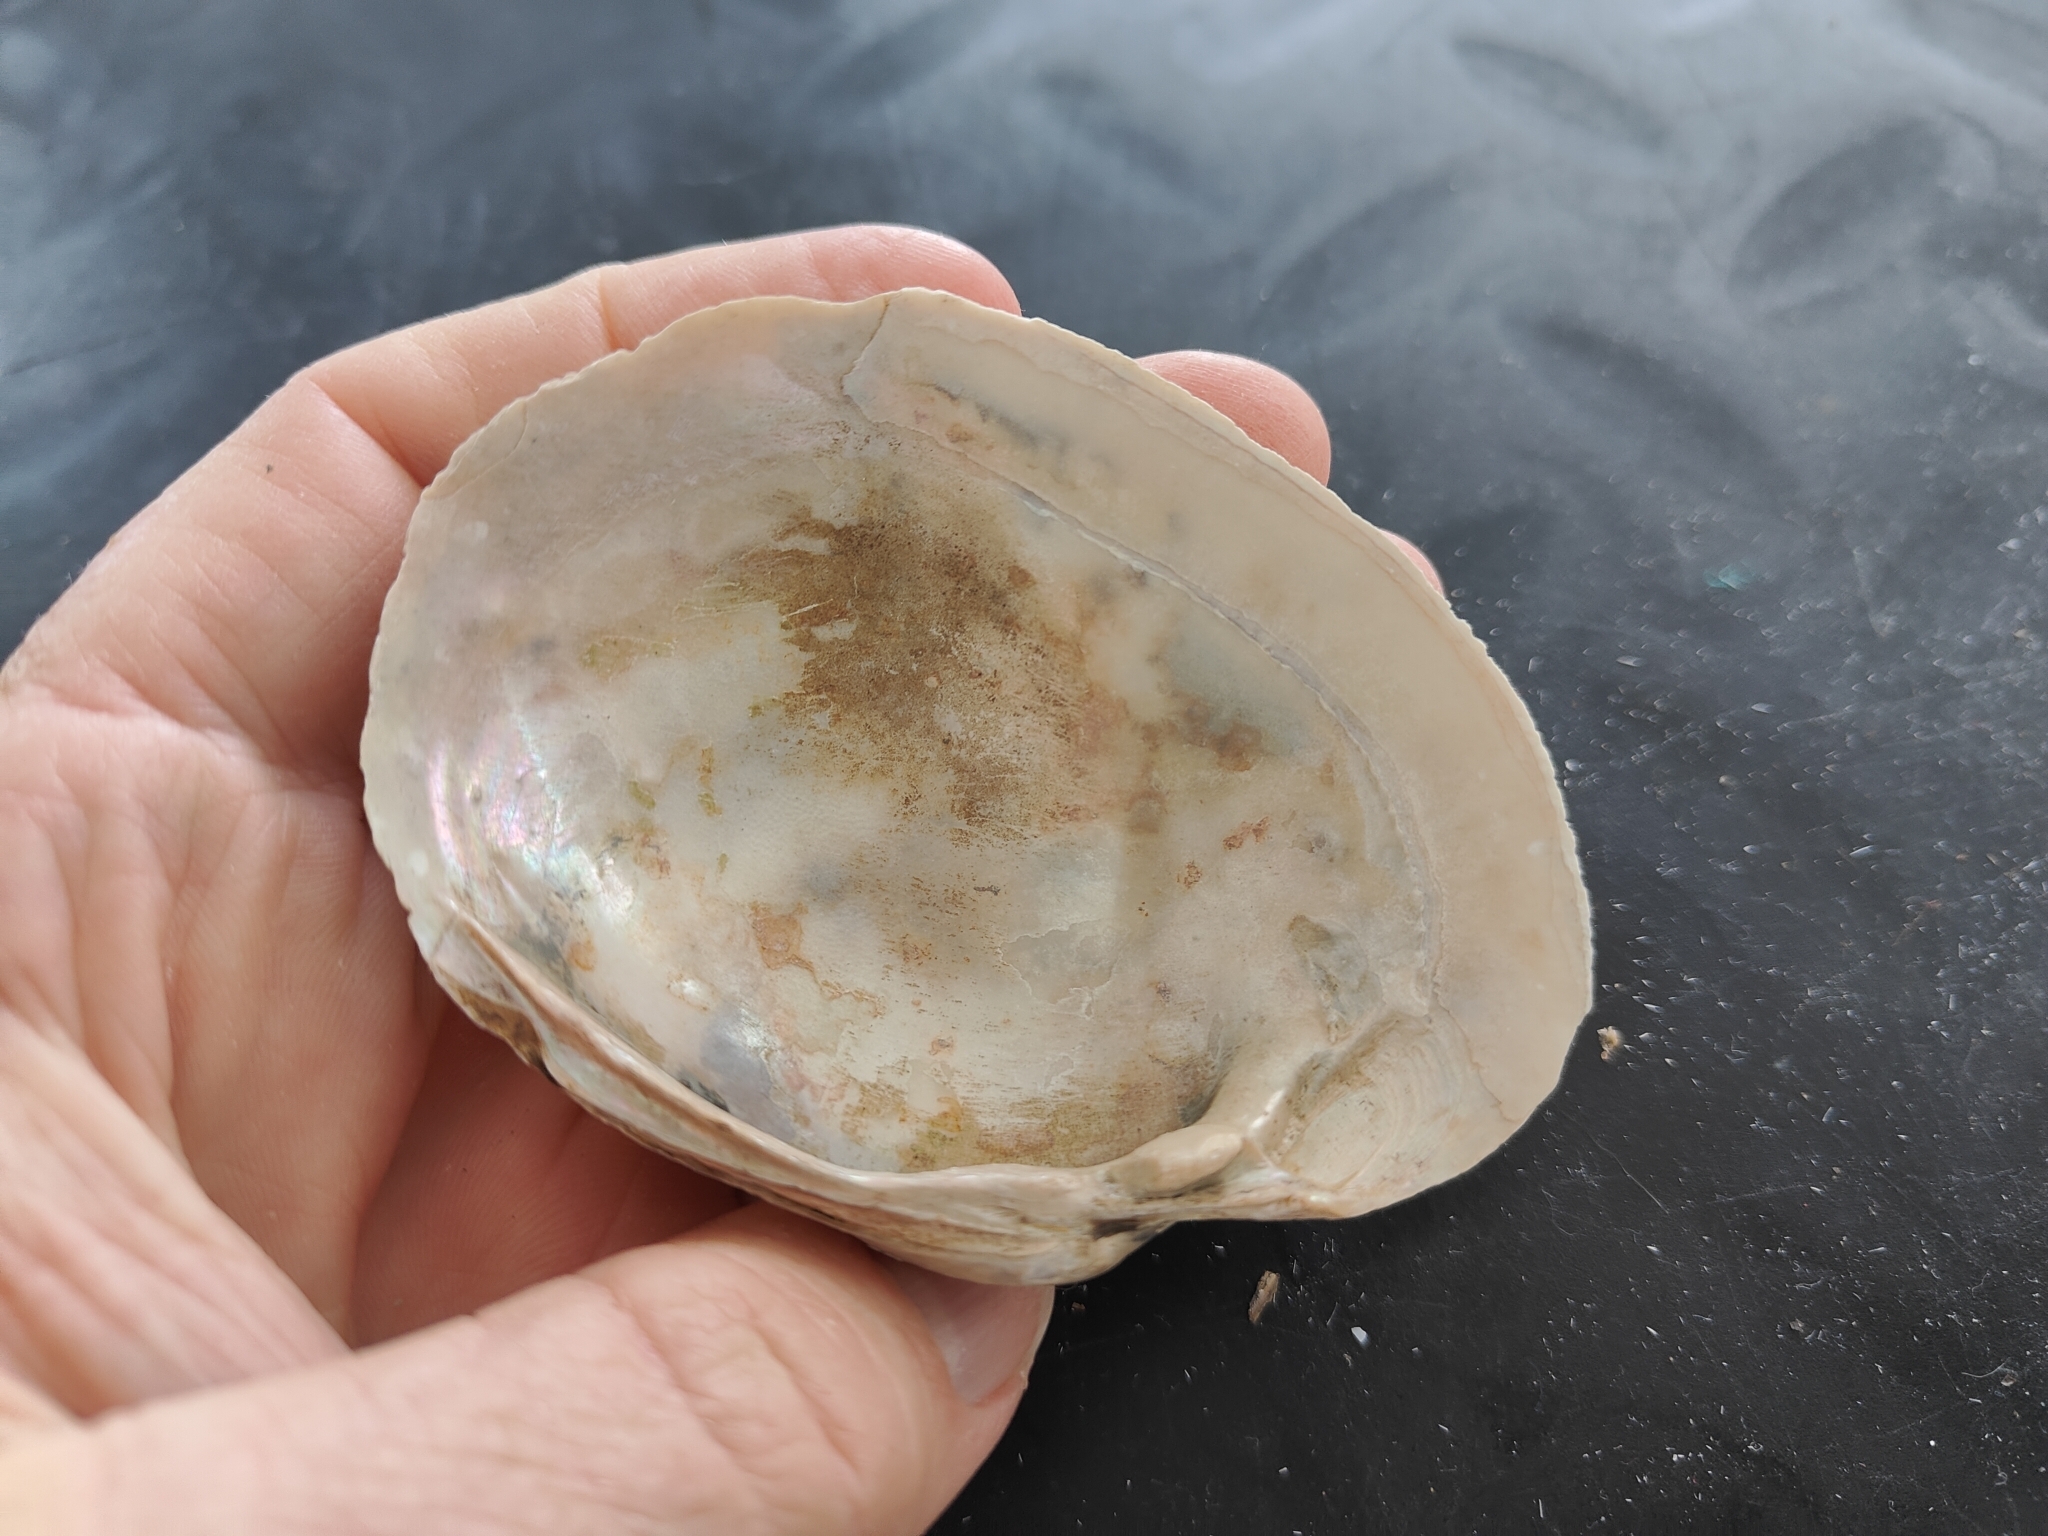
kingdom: Animalia
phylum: Mollusca
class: Bivalvia
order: Unionida
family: Unionidae
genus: Lampsilis
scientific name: Lampsilis cardium
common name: Plain pocketbook
